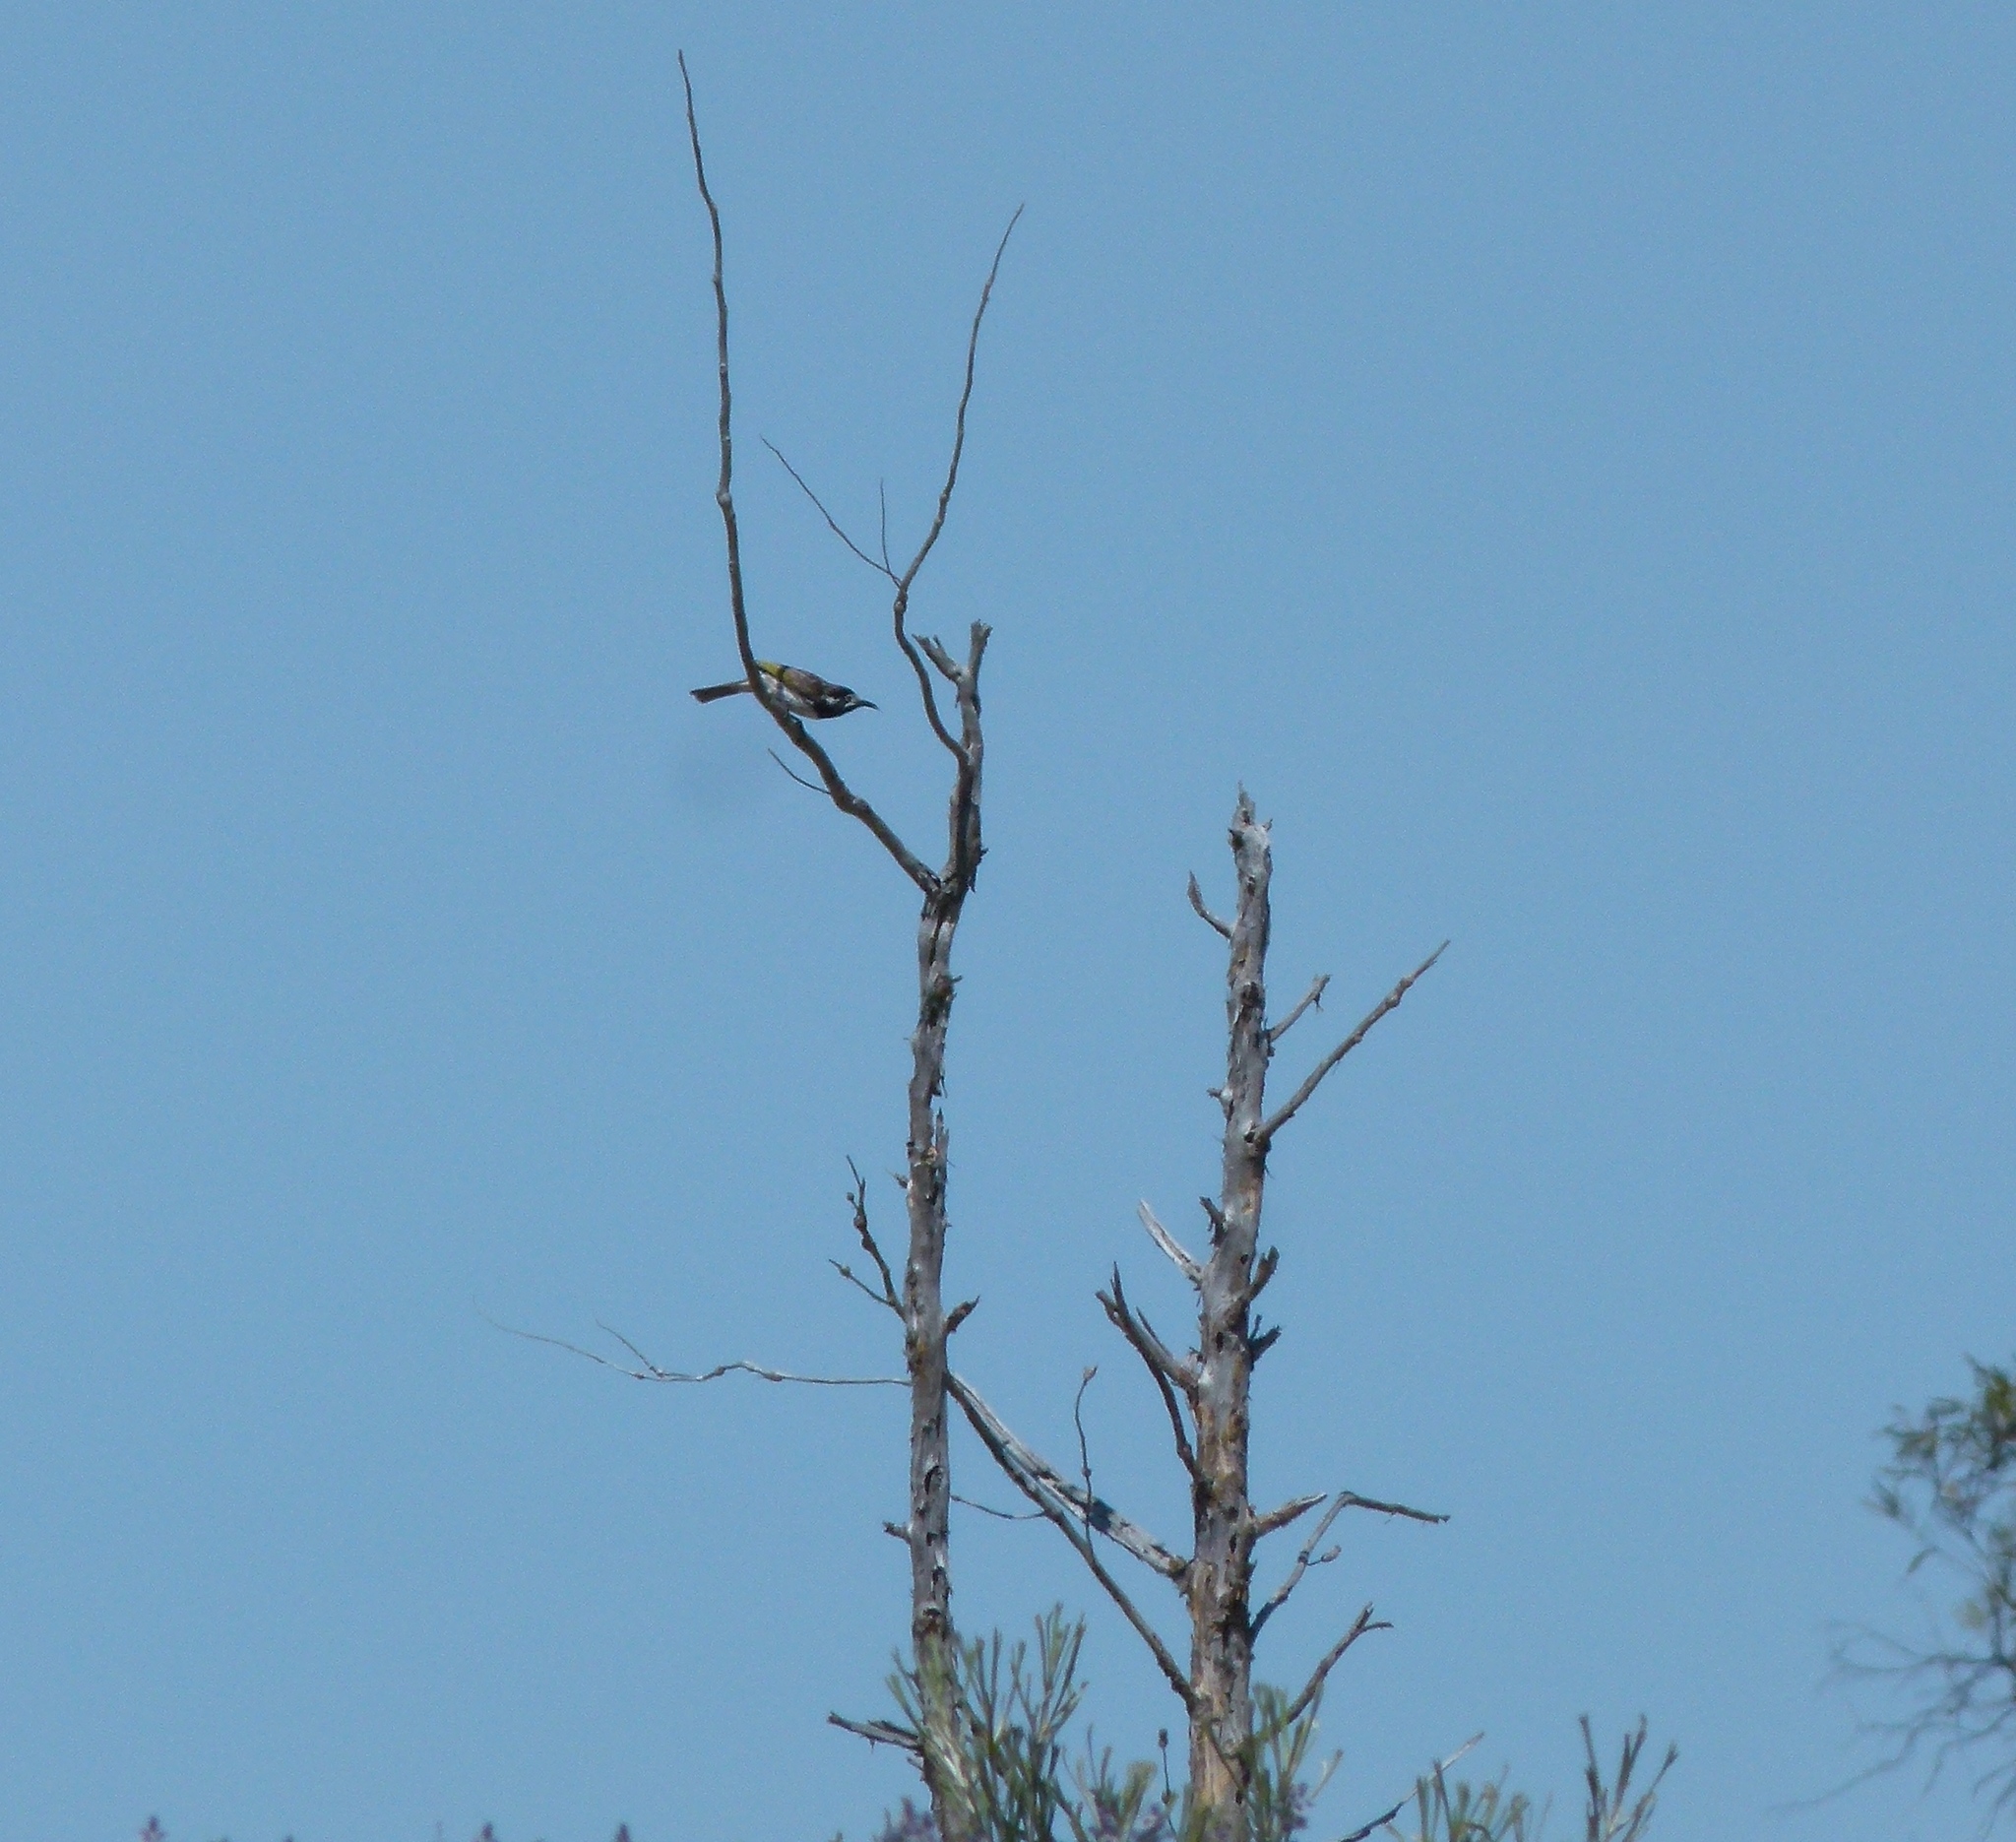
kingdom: Animalia
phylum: Chordata
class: Aves
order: Passeriformes
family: Meliphagidae
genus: Purnella
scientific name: Purnella albifrons
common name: White-fronted honeyeater
